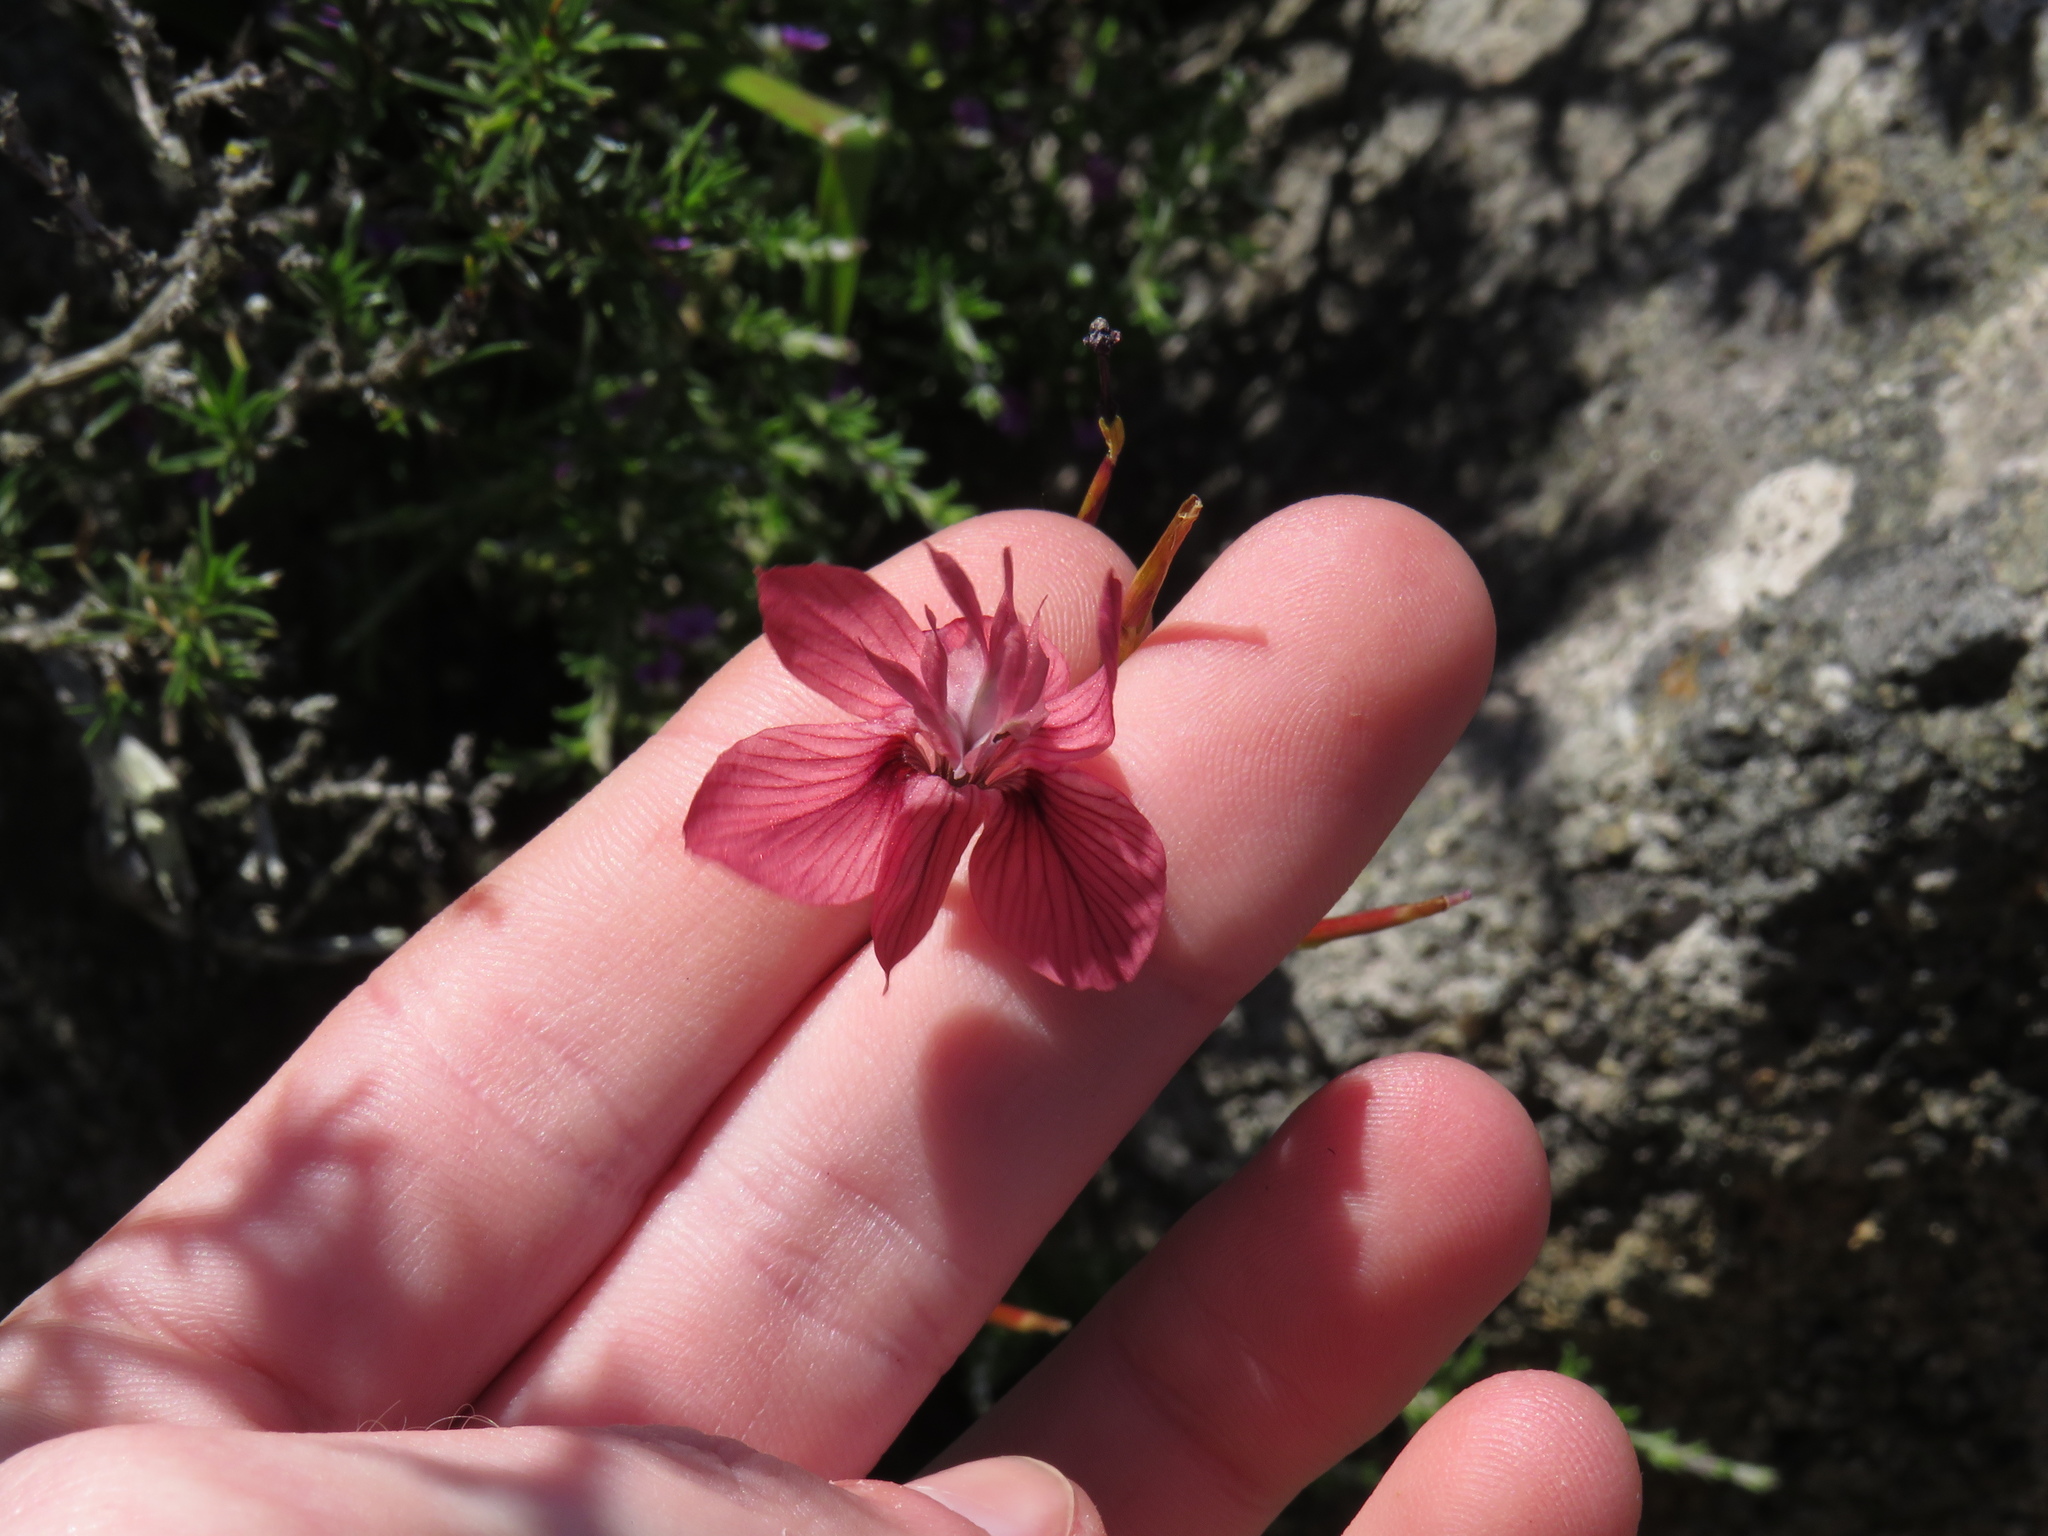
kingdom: Plantae
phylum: Tracheophyta
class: Liliopsida
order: Asparagales
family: Iridaceae
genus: Moraea
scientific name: Moraea gawleri
